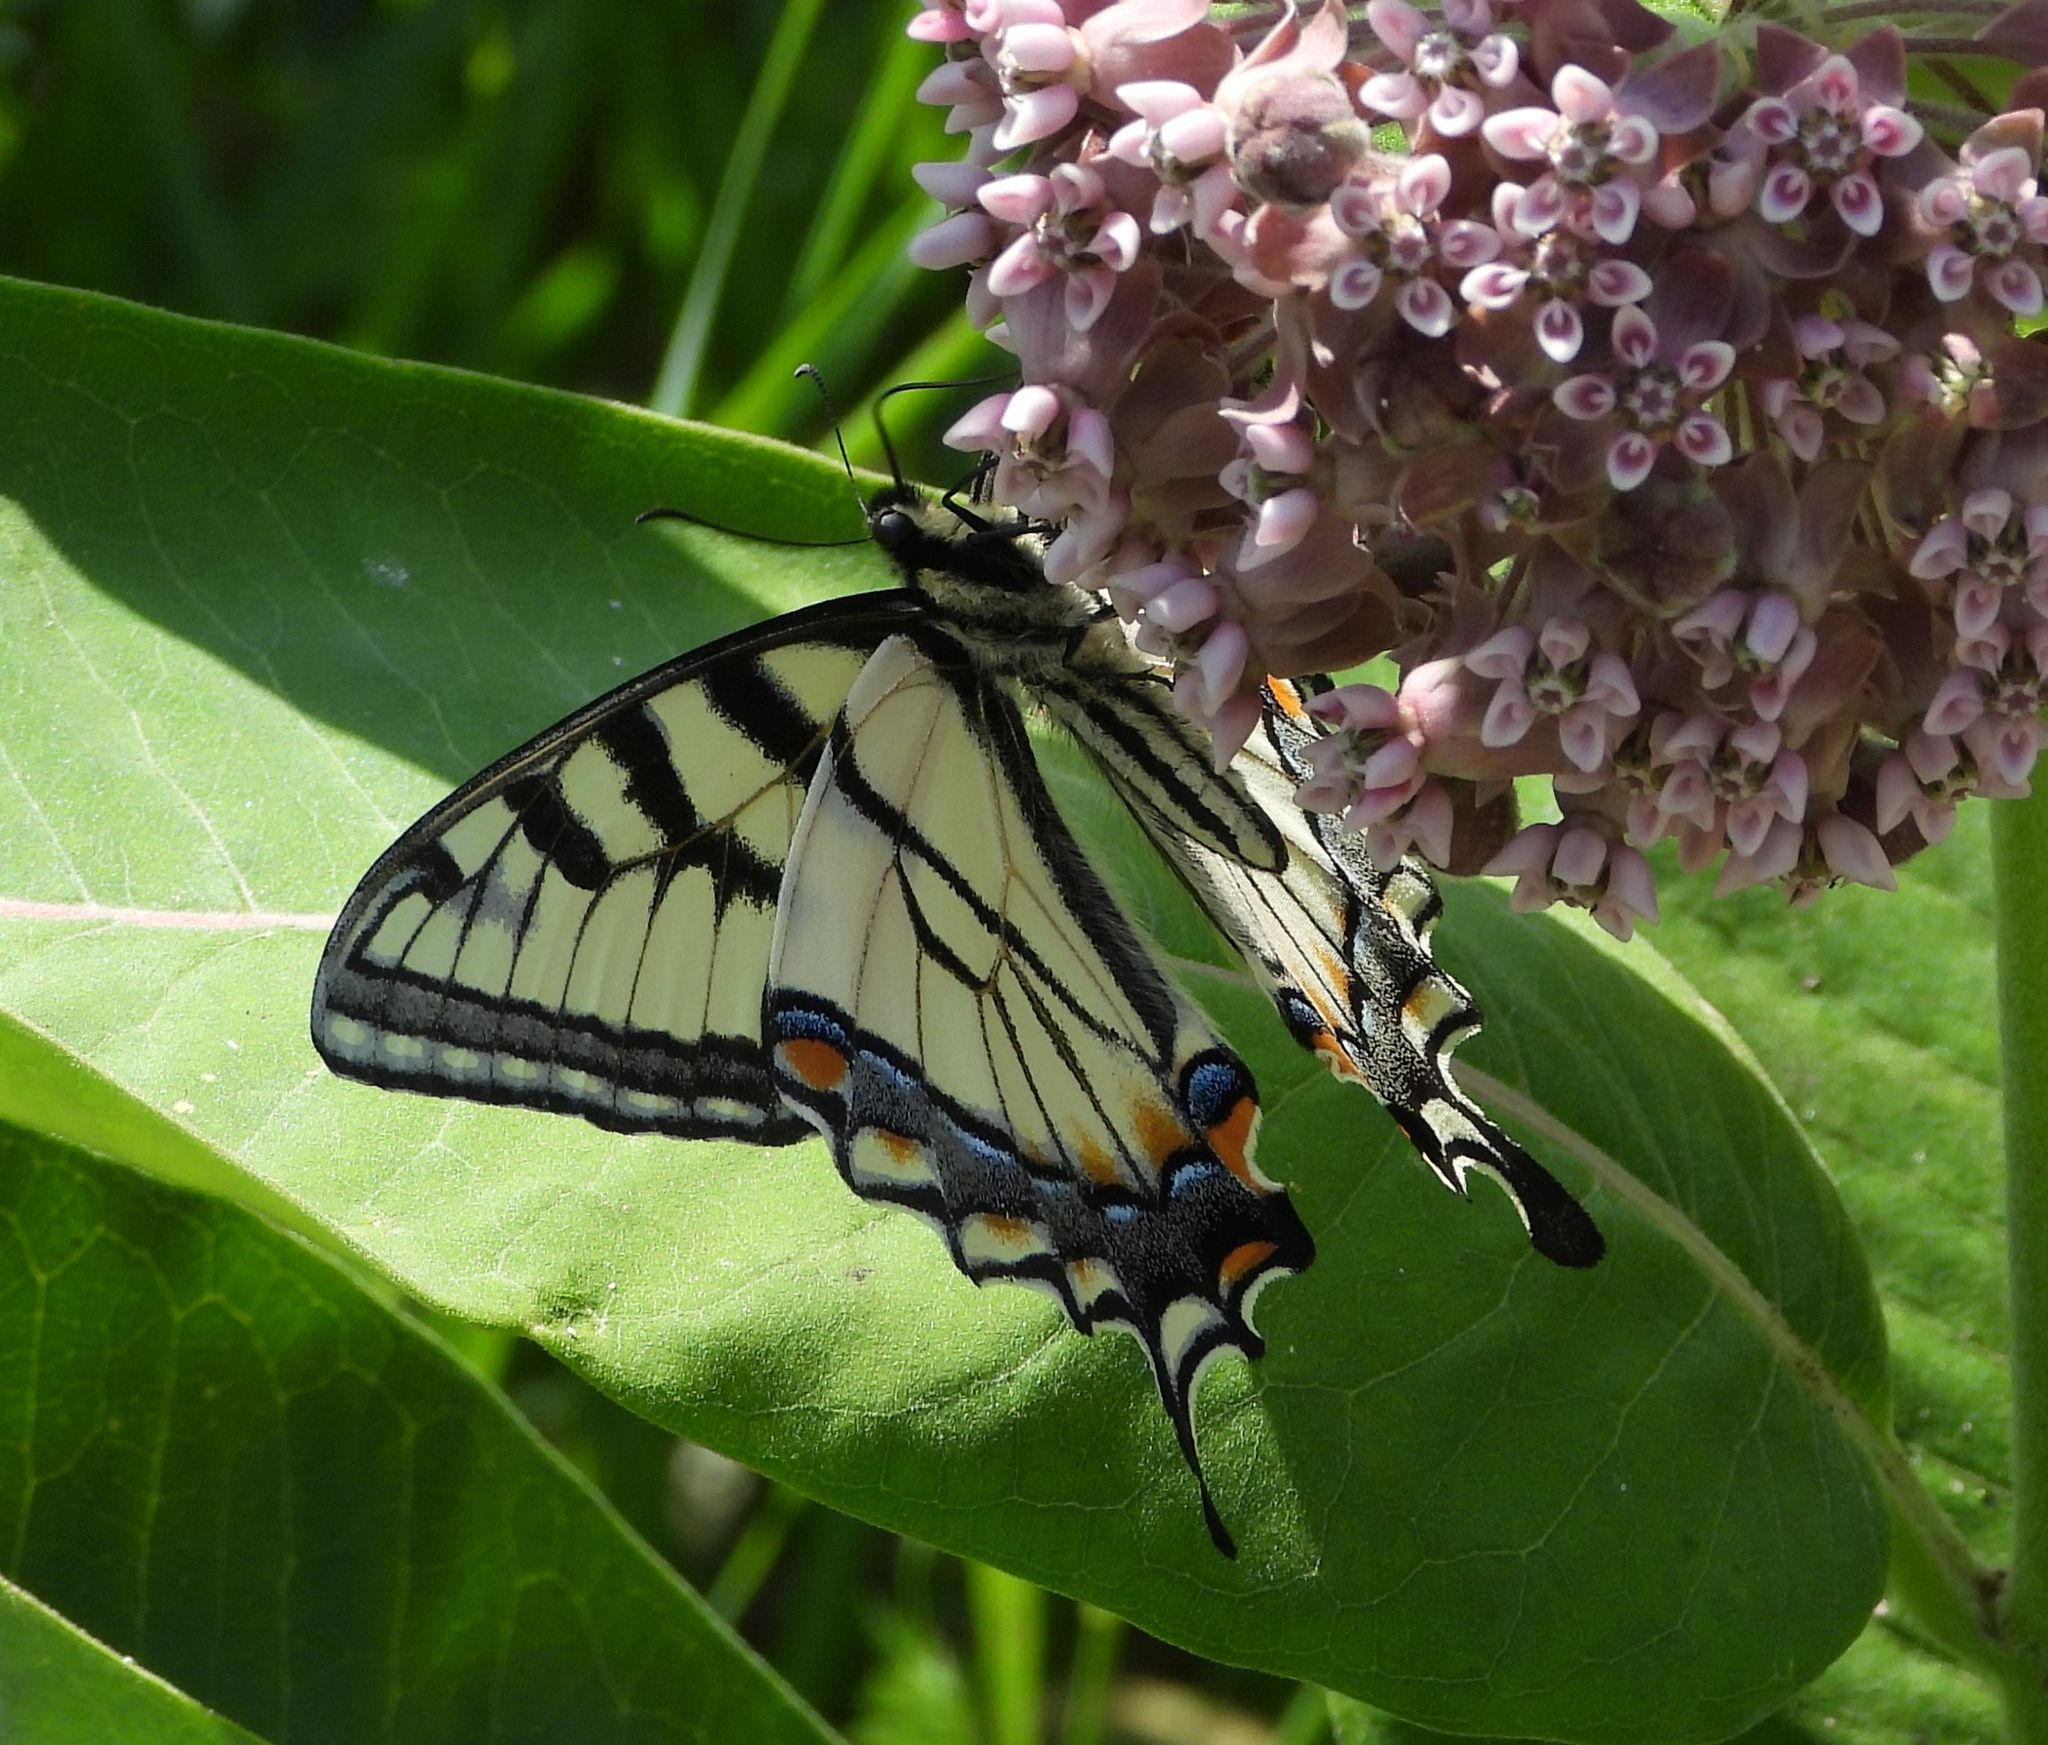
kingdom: Animalia
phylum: Arthropoda
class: Insecta
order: Lepidoptera
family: Papilionidae
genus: Papilio
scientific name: Papilio
